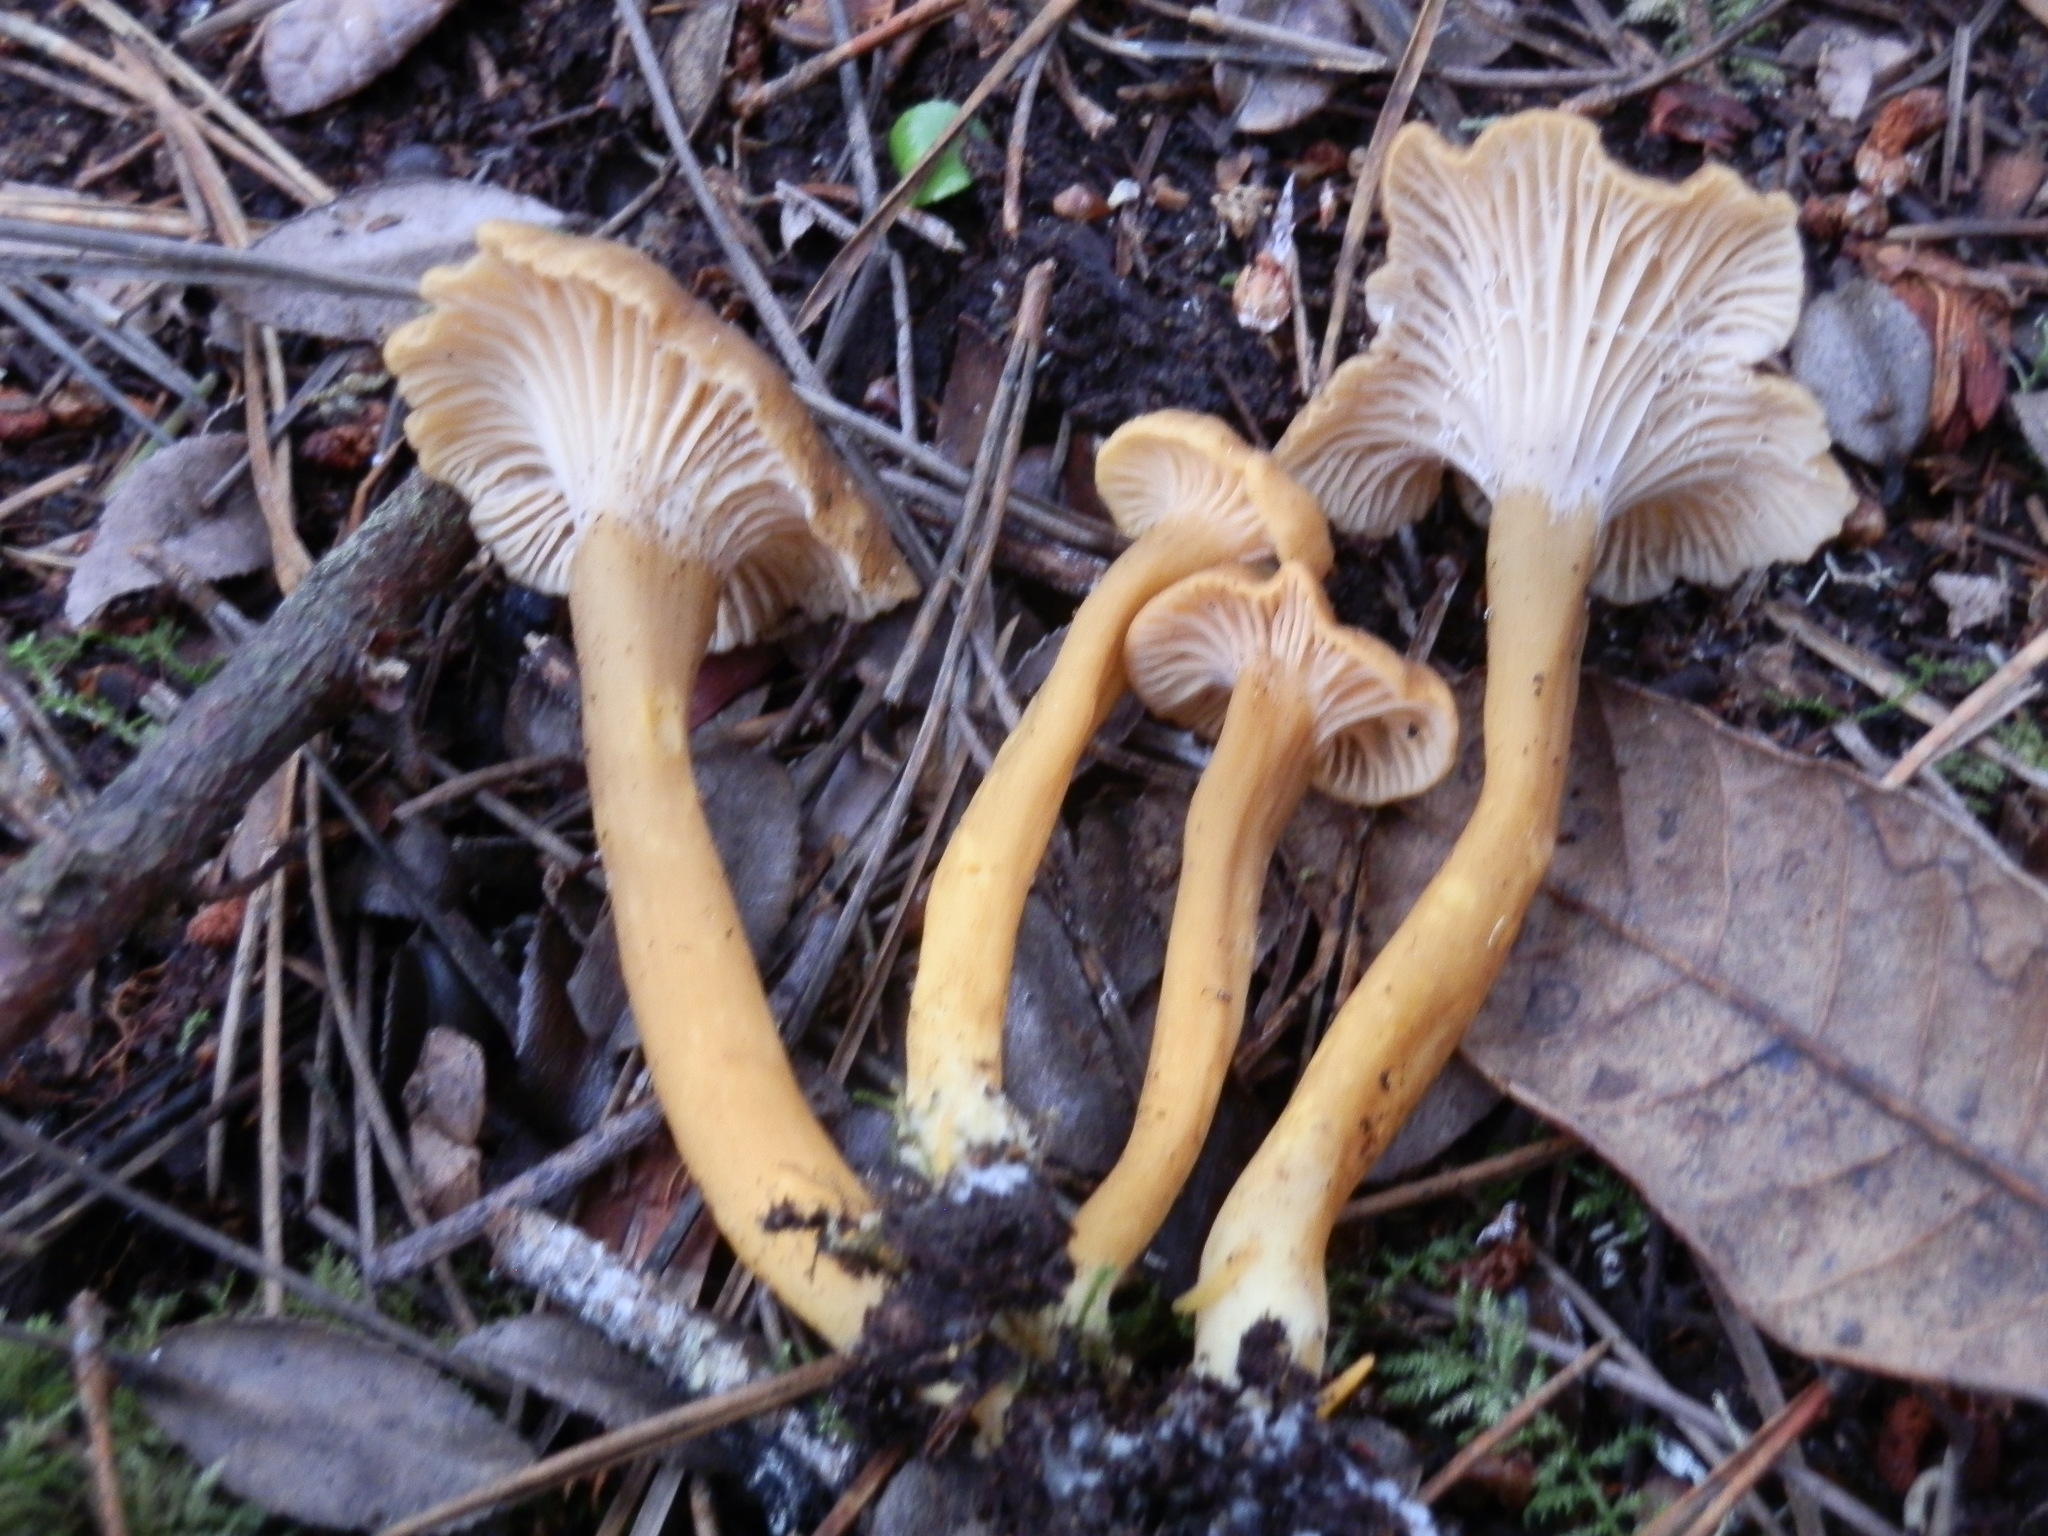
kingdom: Fungi
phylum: Basidiomycota
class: Agaricomycetes
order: Cantharellales
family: Hydnaceae
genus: Craterellus
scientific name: Craterellus tubaeformis
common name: Yellowfoot
